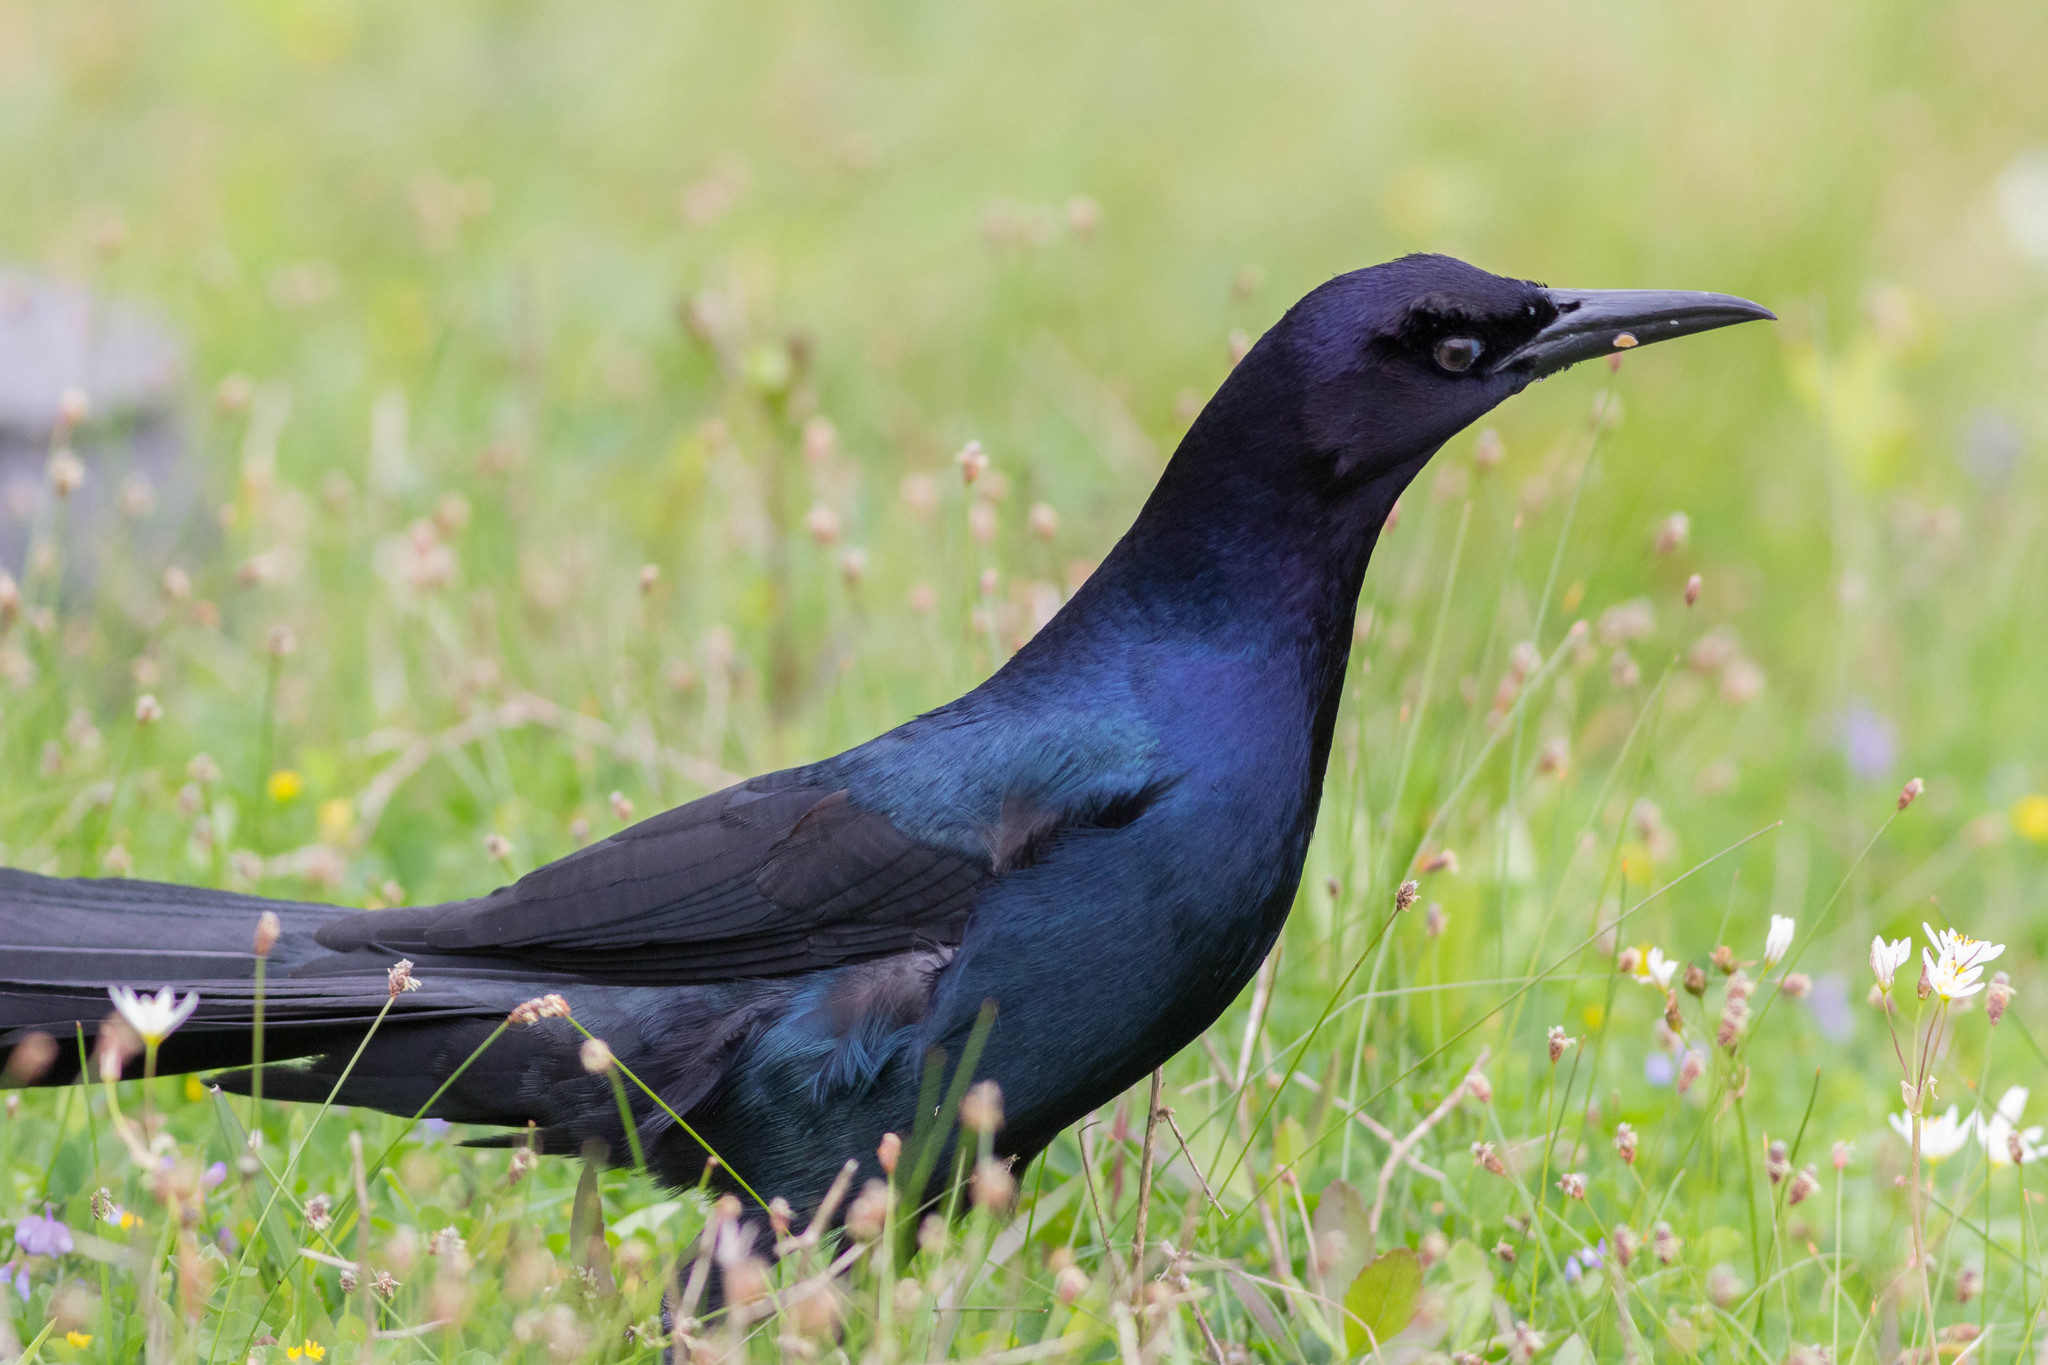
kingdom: Animalia
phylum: Chordata
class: Aves
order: Passeriformes
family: Icteridae
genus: Quiscalus
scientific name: Quiscalus
